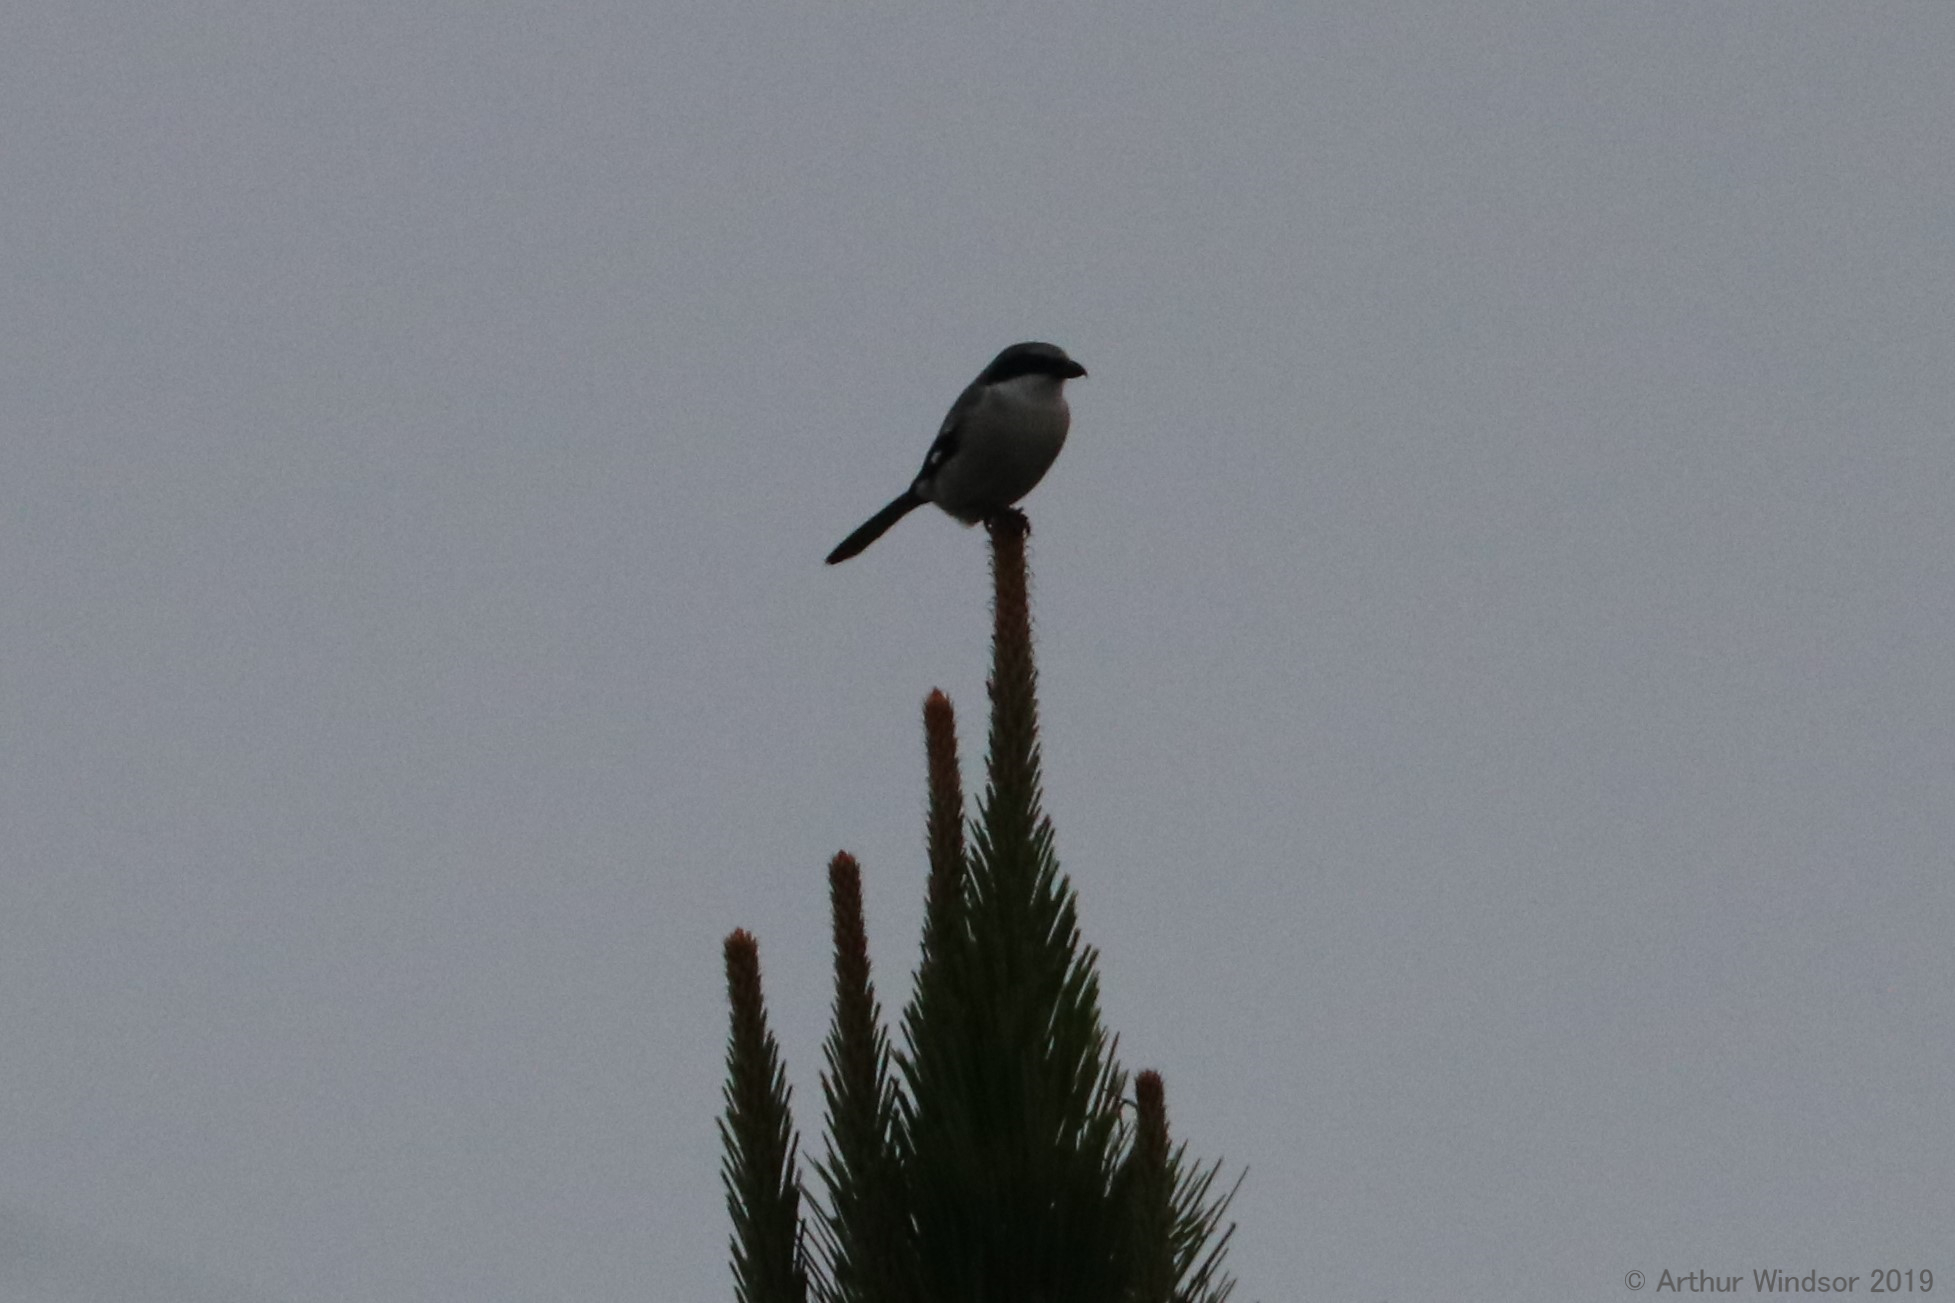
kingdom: Animalia
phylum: Chordata
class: Aves
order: Passeriformes
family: Laniidae
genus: Lanius
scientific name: Lanius ludovicianus
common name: Loggerhead shrike
